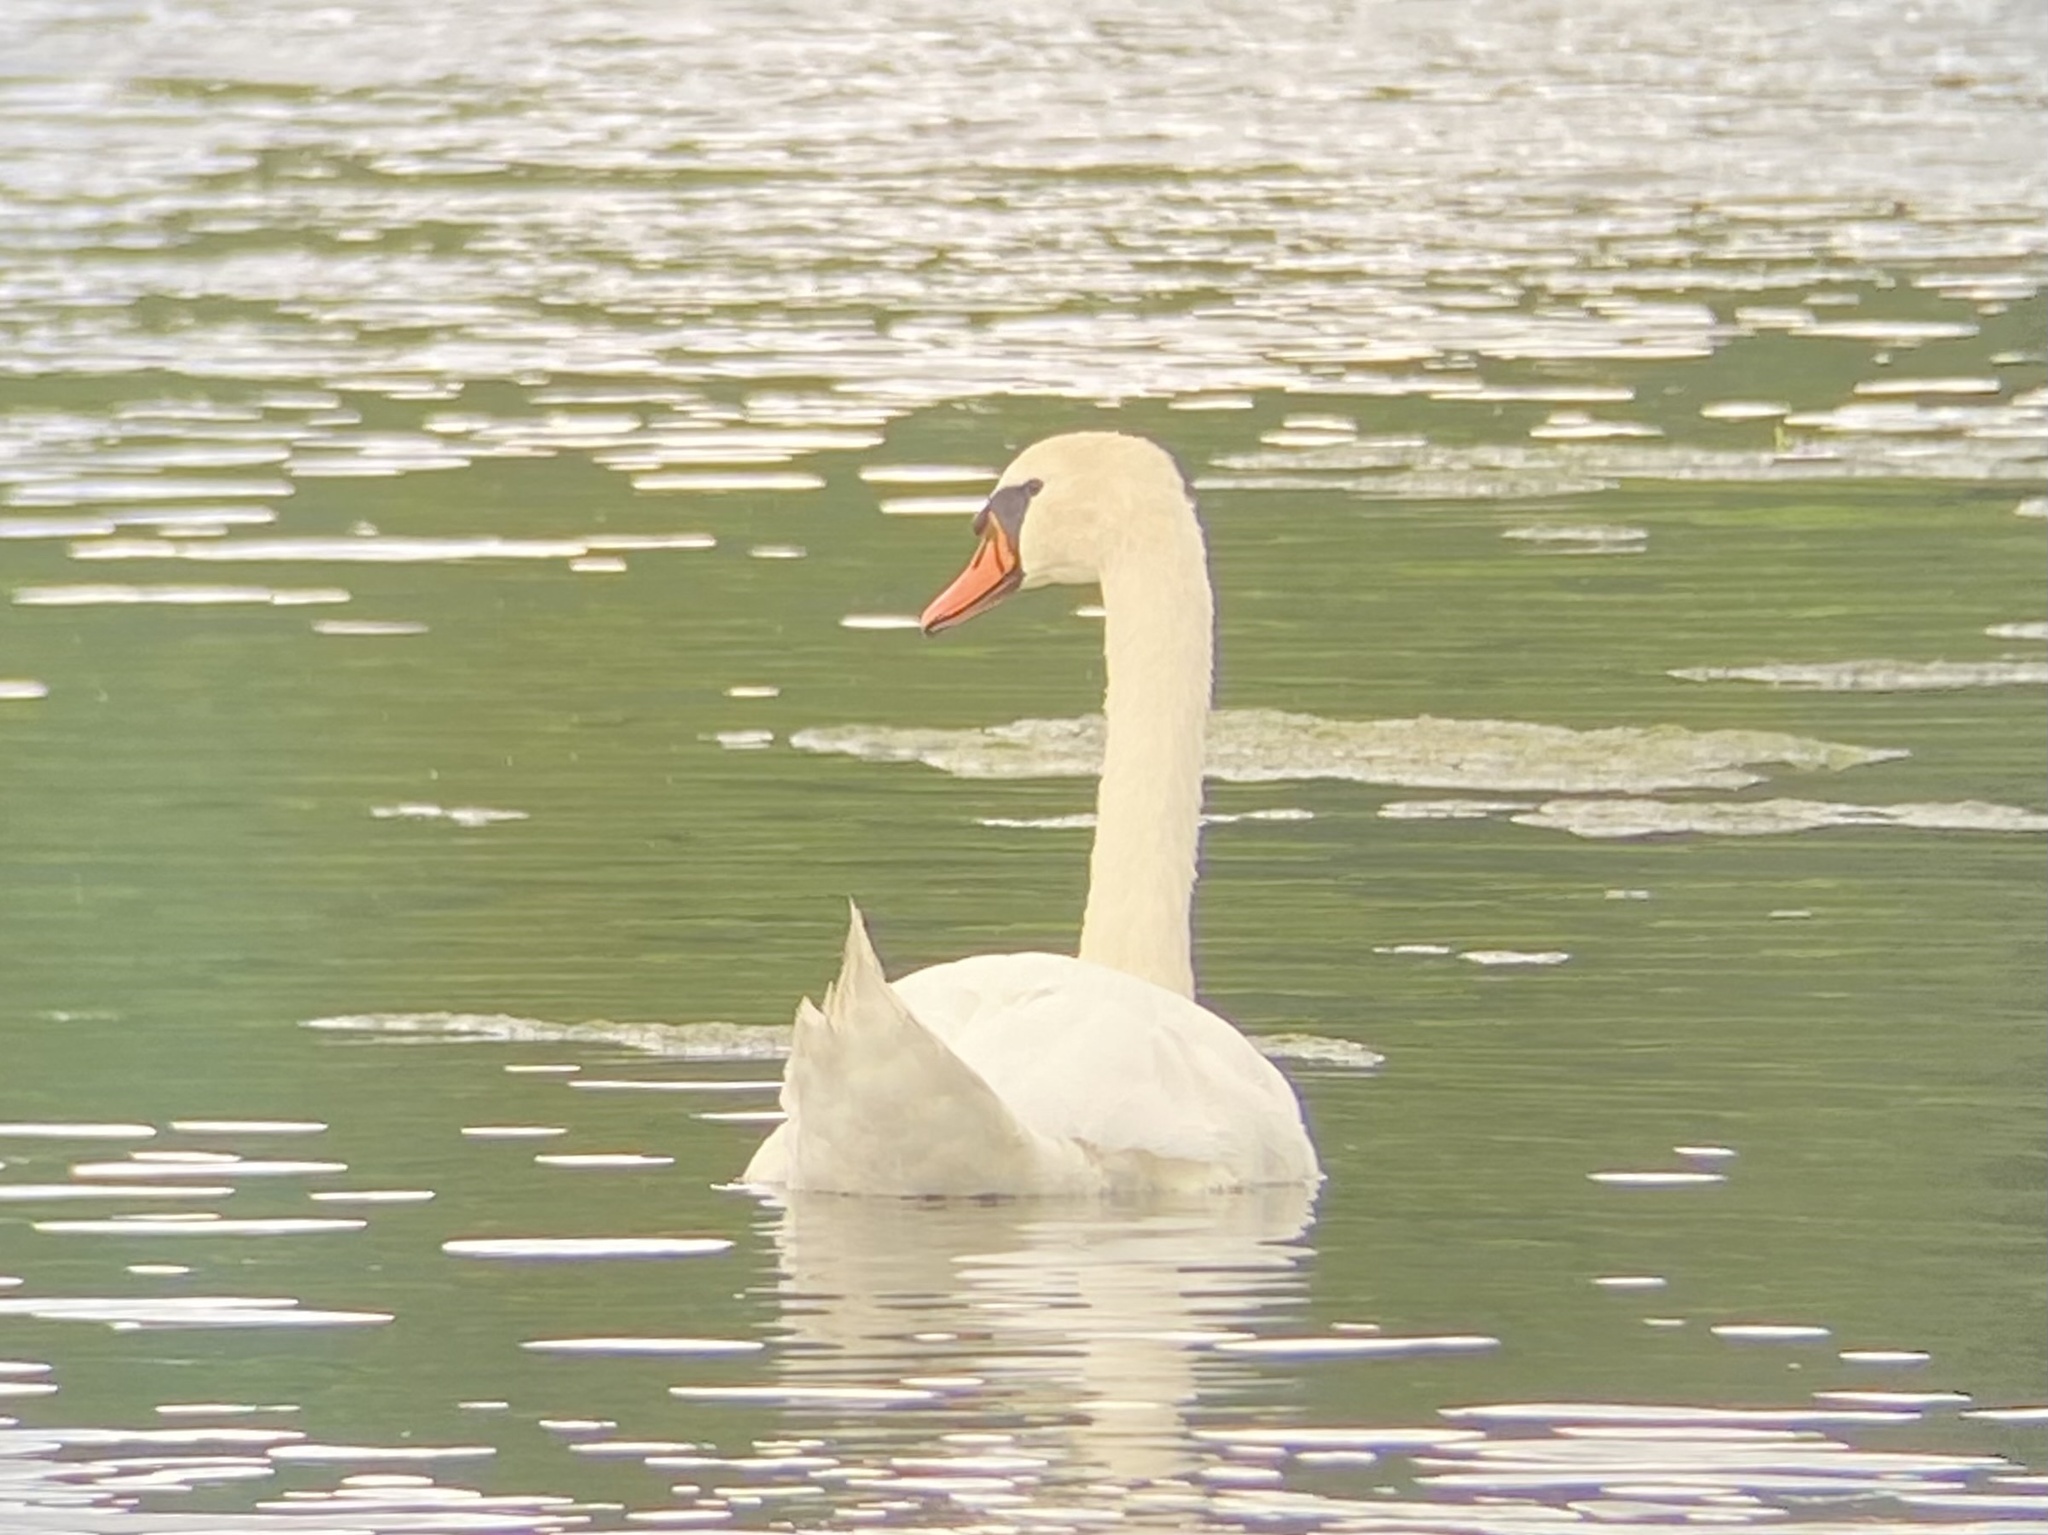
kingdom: Animalia
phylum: Chordata
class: Aves
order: Anseriformes
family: Anatidae
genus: Cygnus
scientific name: Cygnus olor
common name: Mute swan
